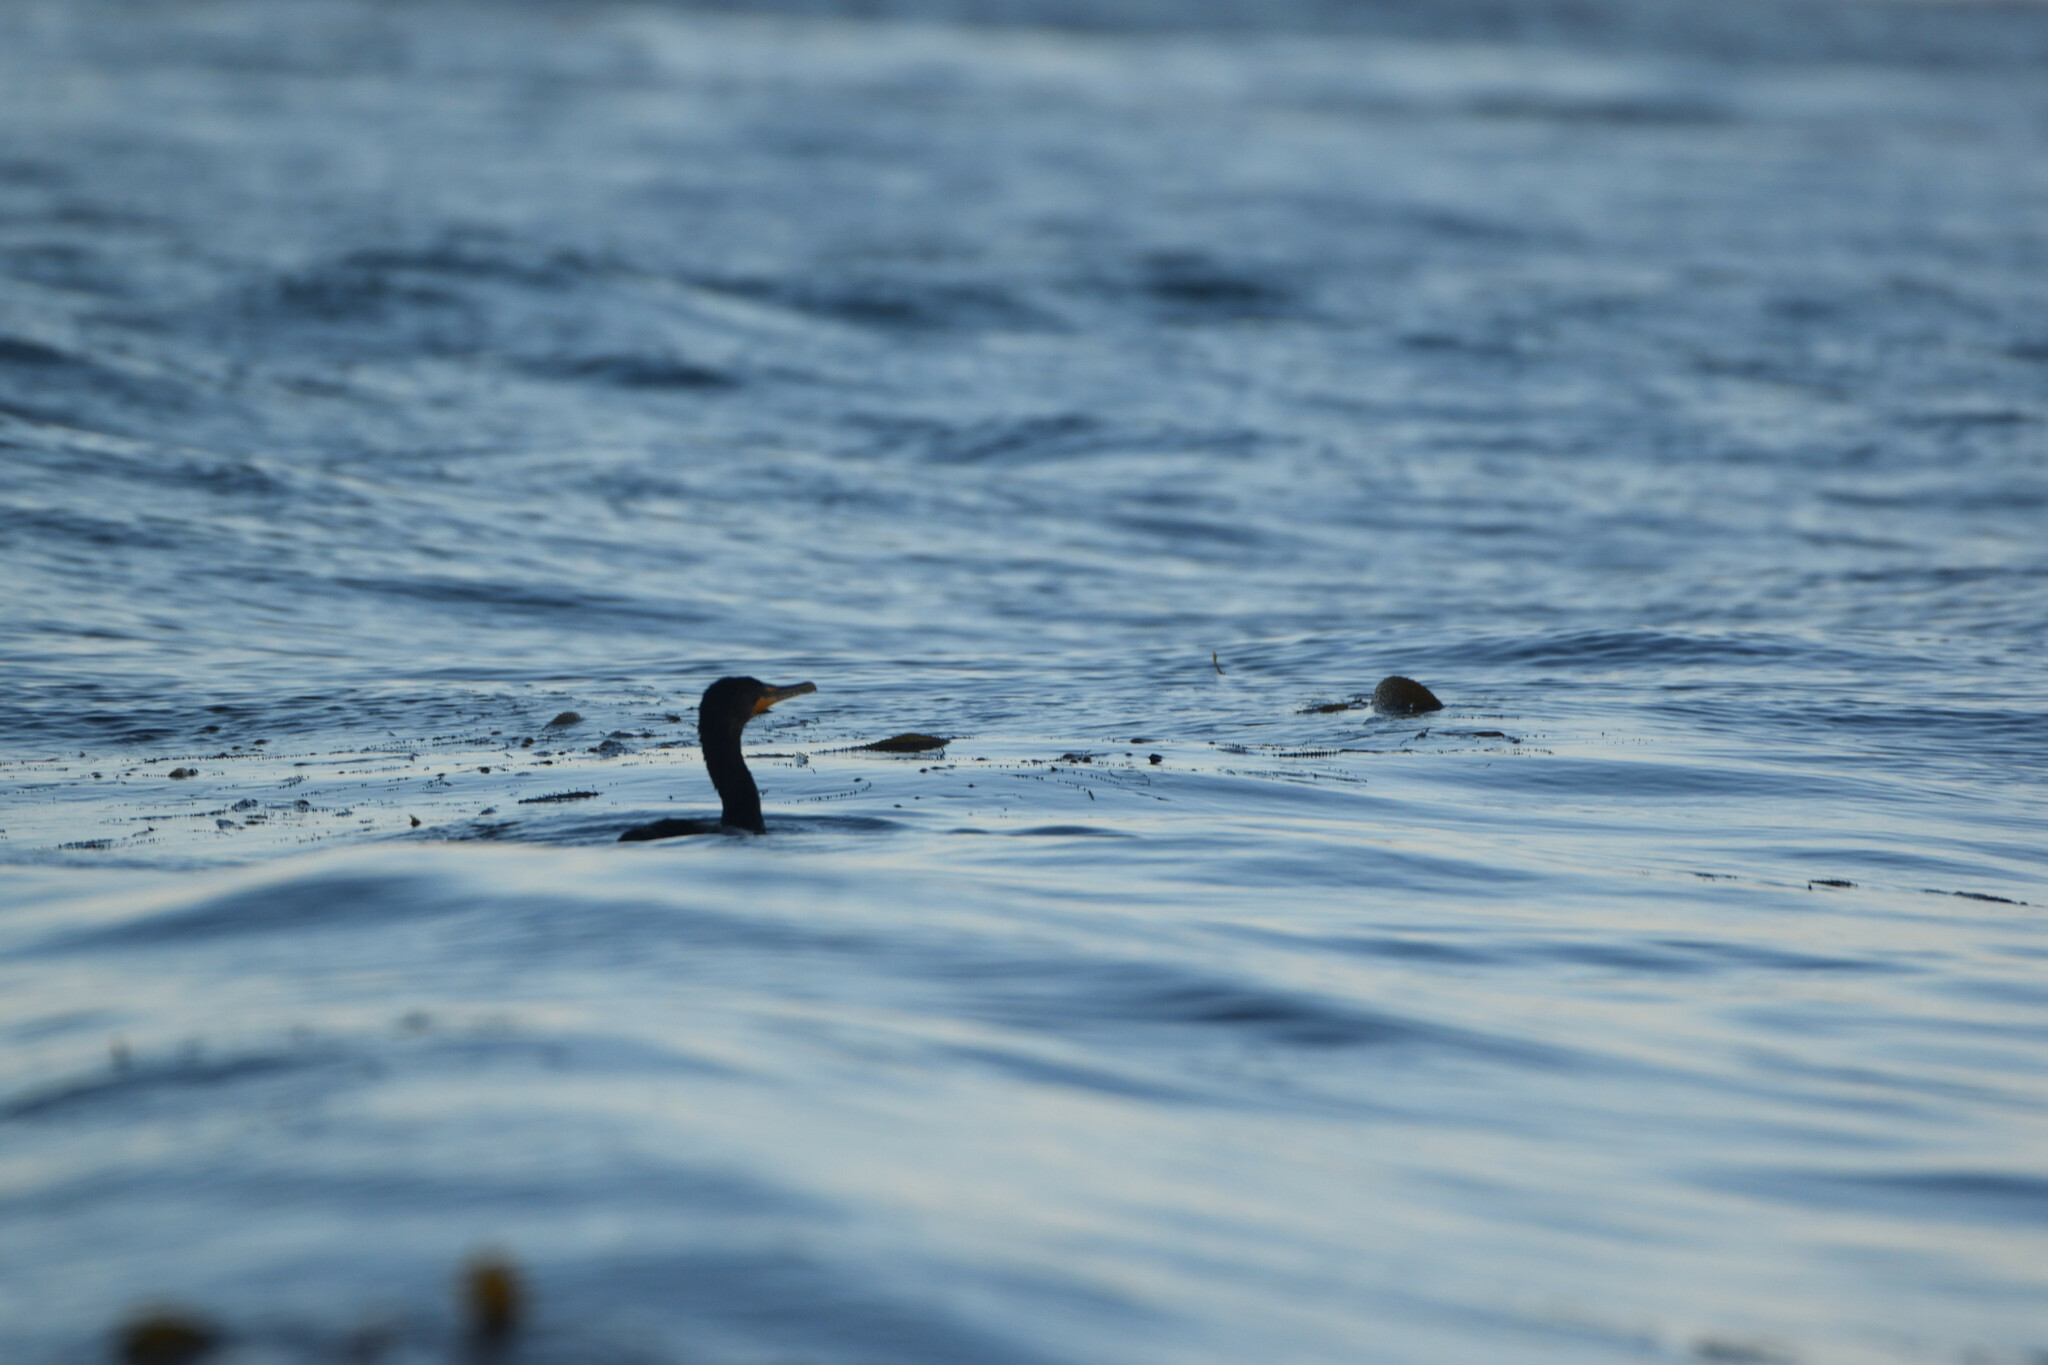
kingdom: Animalia
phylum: Chordata
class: Aves
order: Suliformes
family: Phalacrocoracidae
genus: Phalacrocorax
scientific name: Phalacrocorax auritus
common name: Double-crested cormorant
